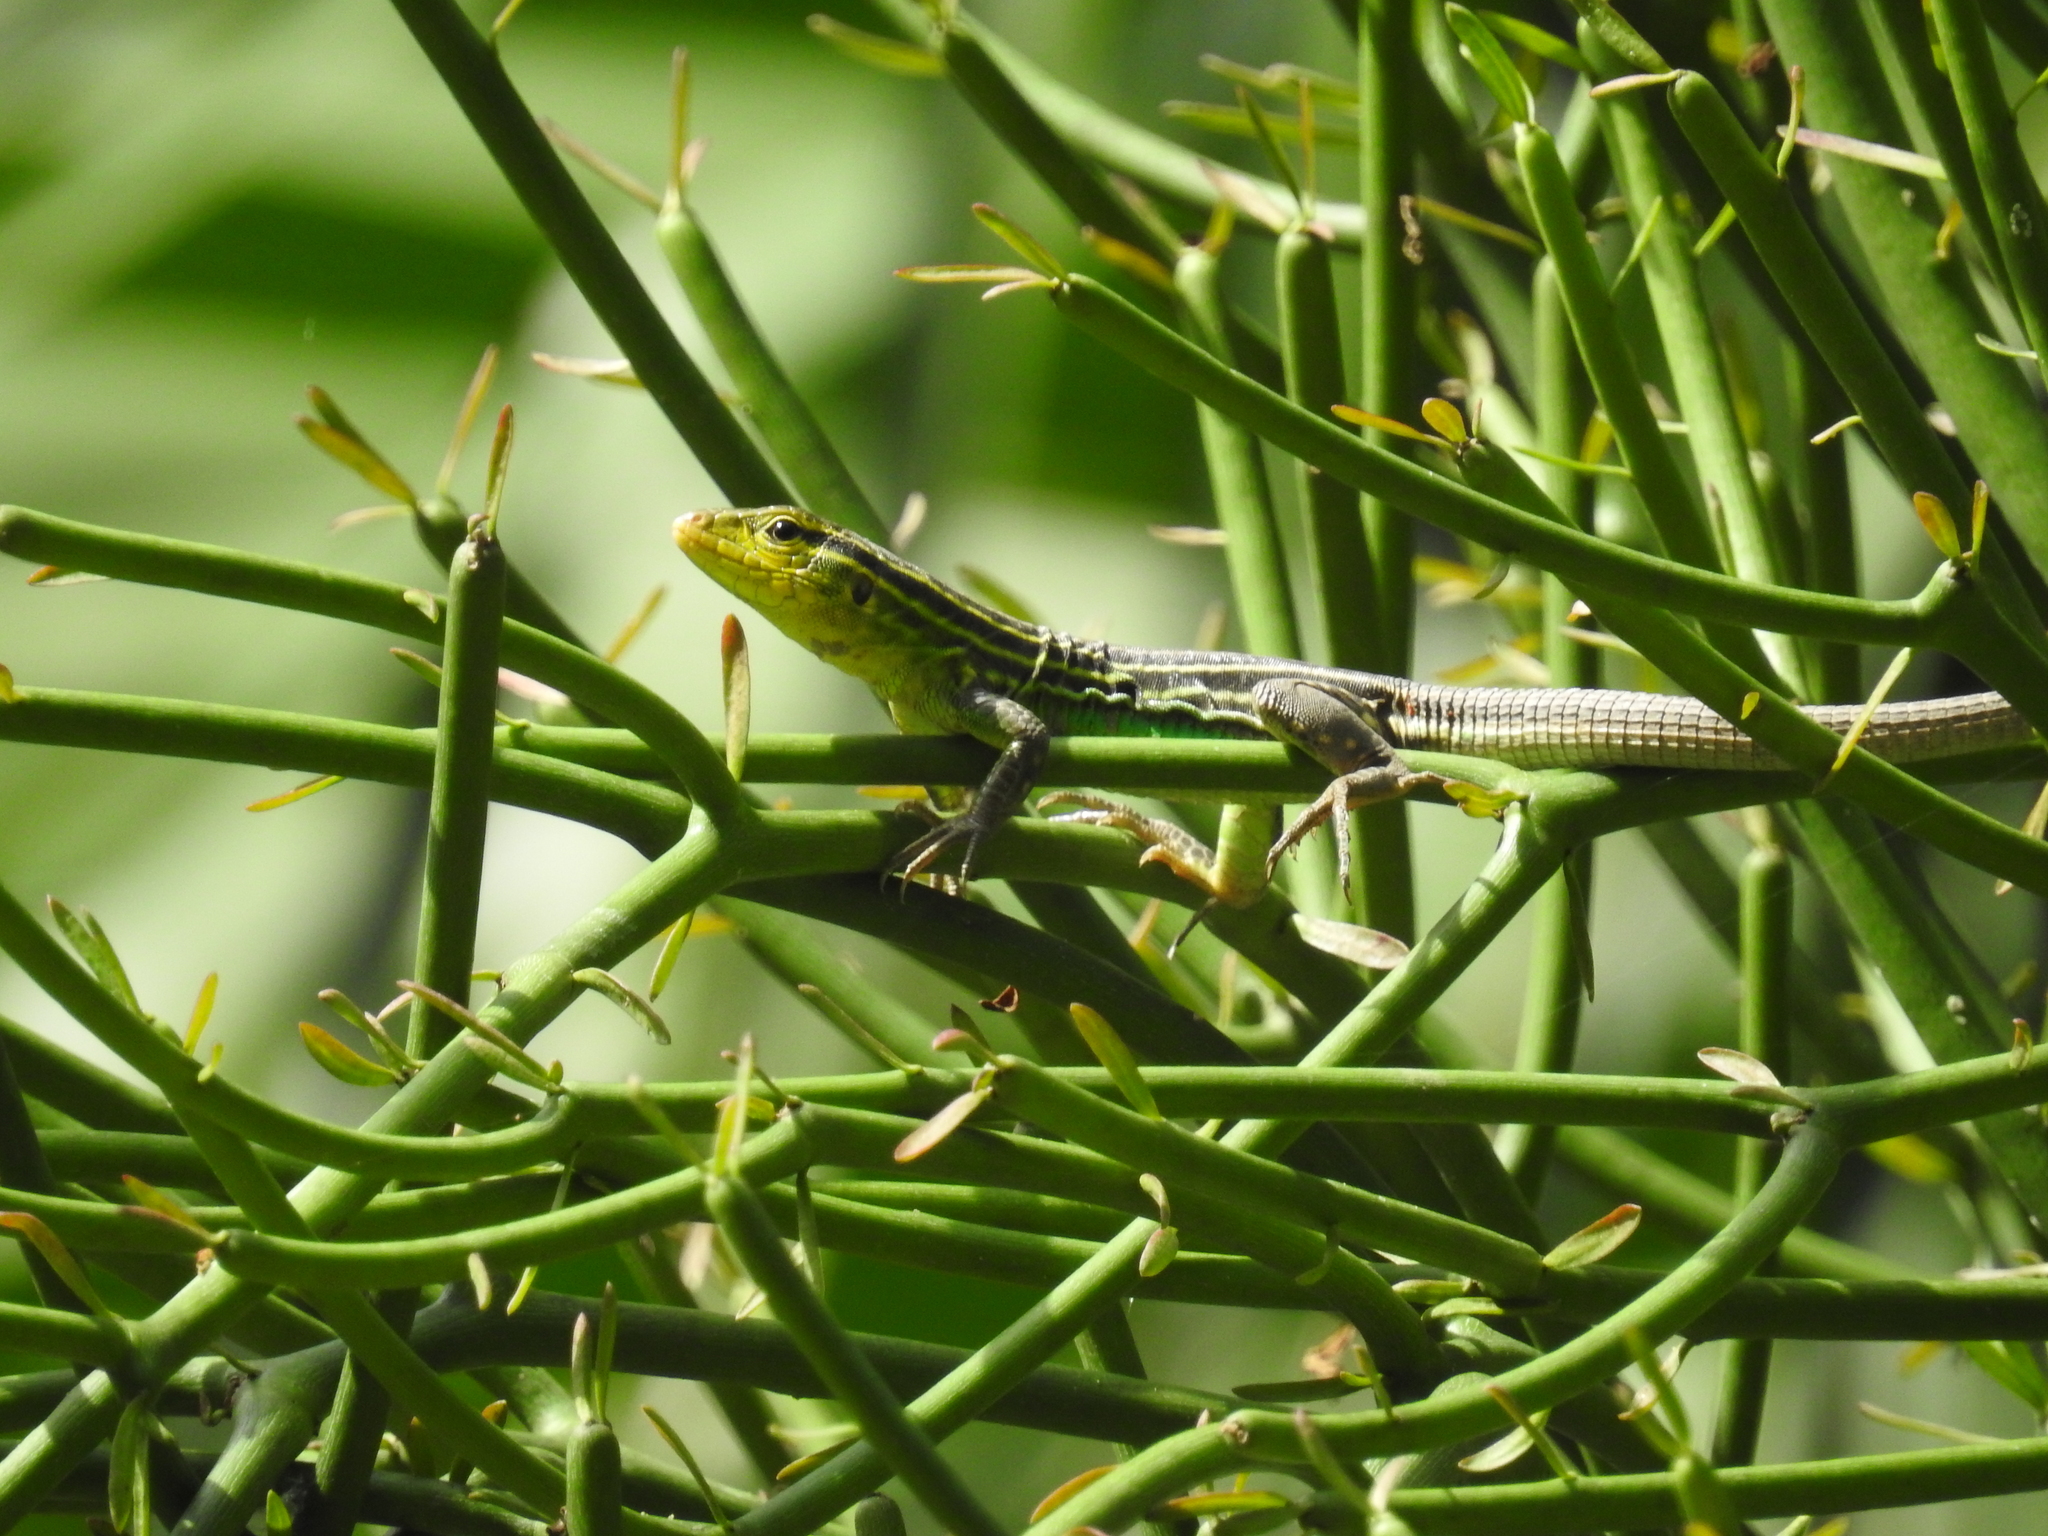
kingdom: Animalia
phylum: Chordata
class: Squamata
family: Teiidae
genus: Cnemidophorus
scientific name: Cnemidophorus gaigei
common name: Gaige’s rainbow lizard
